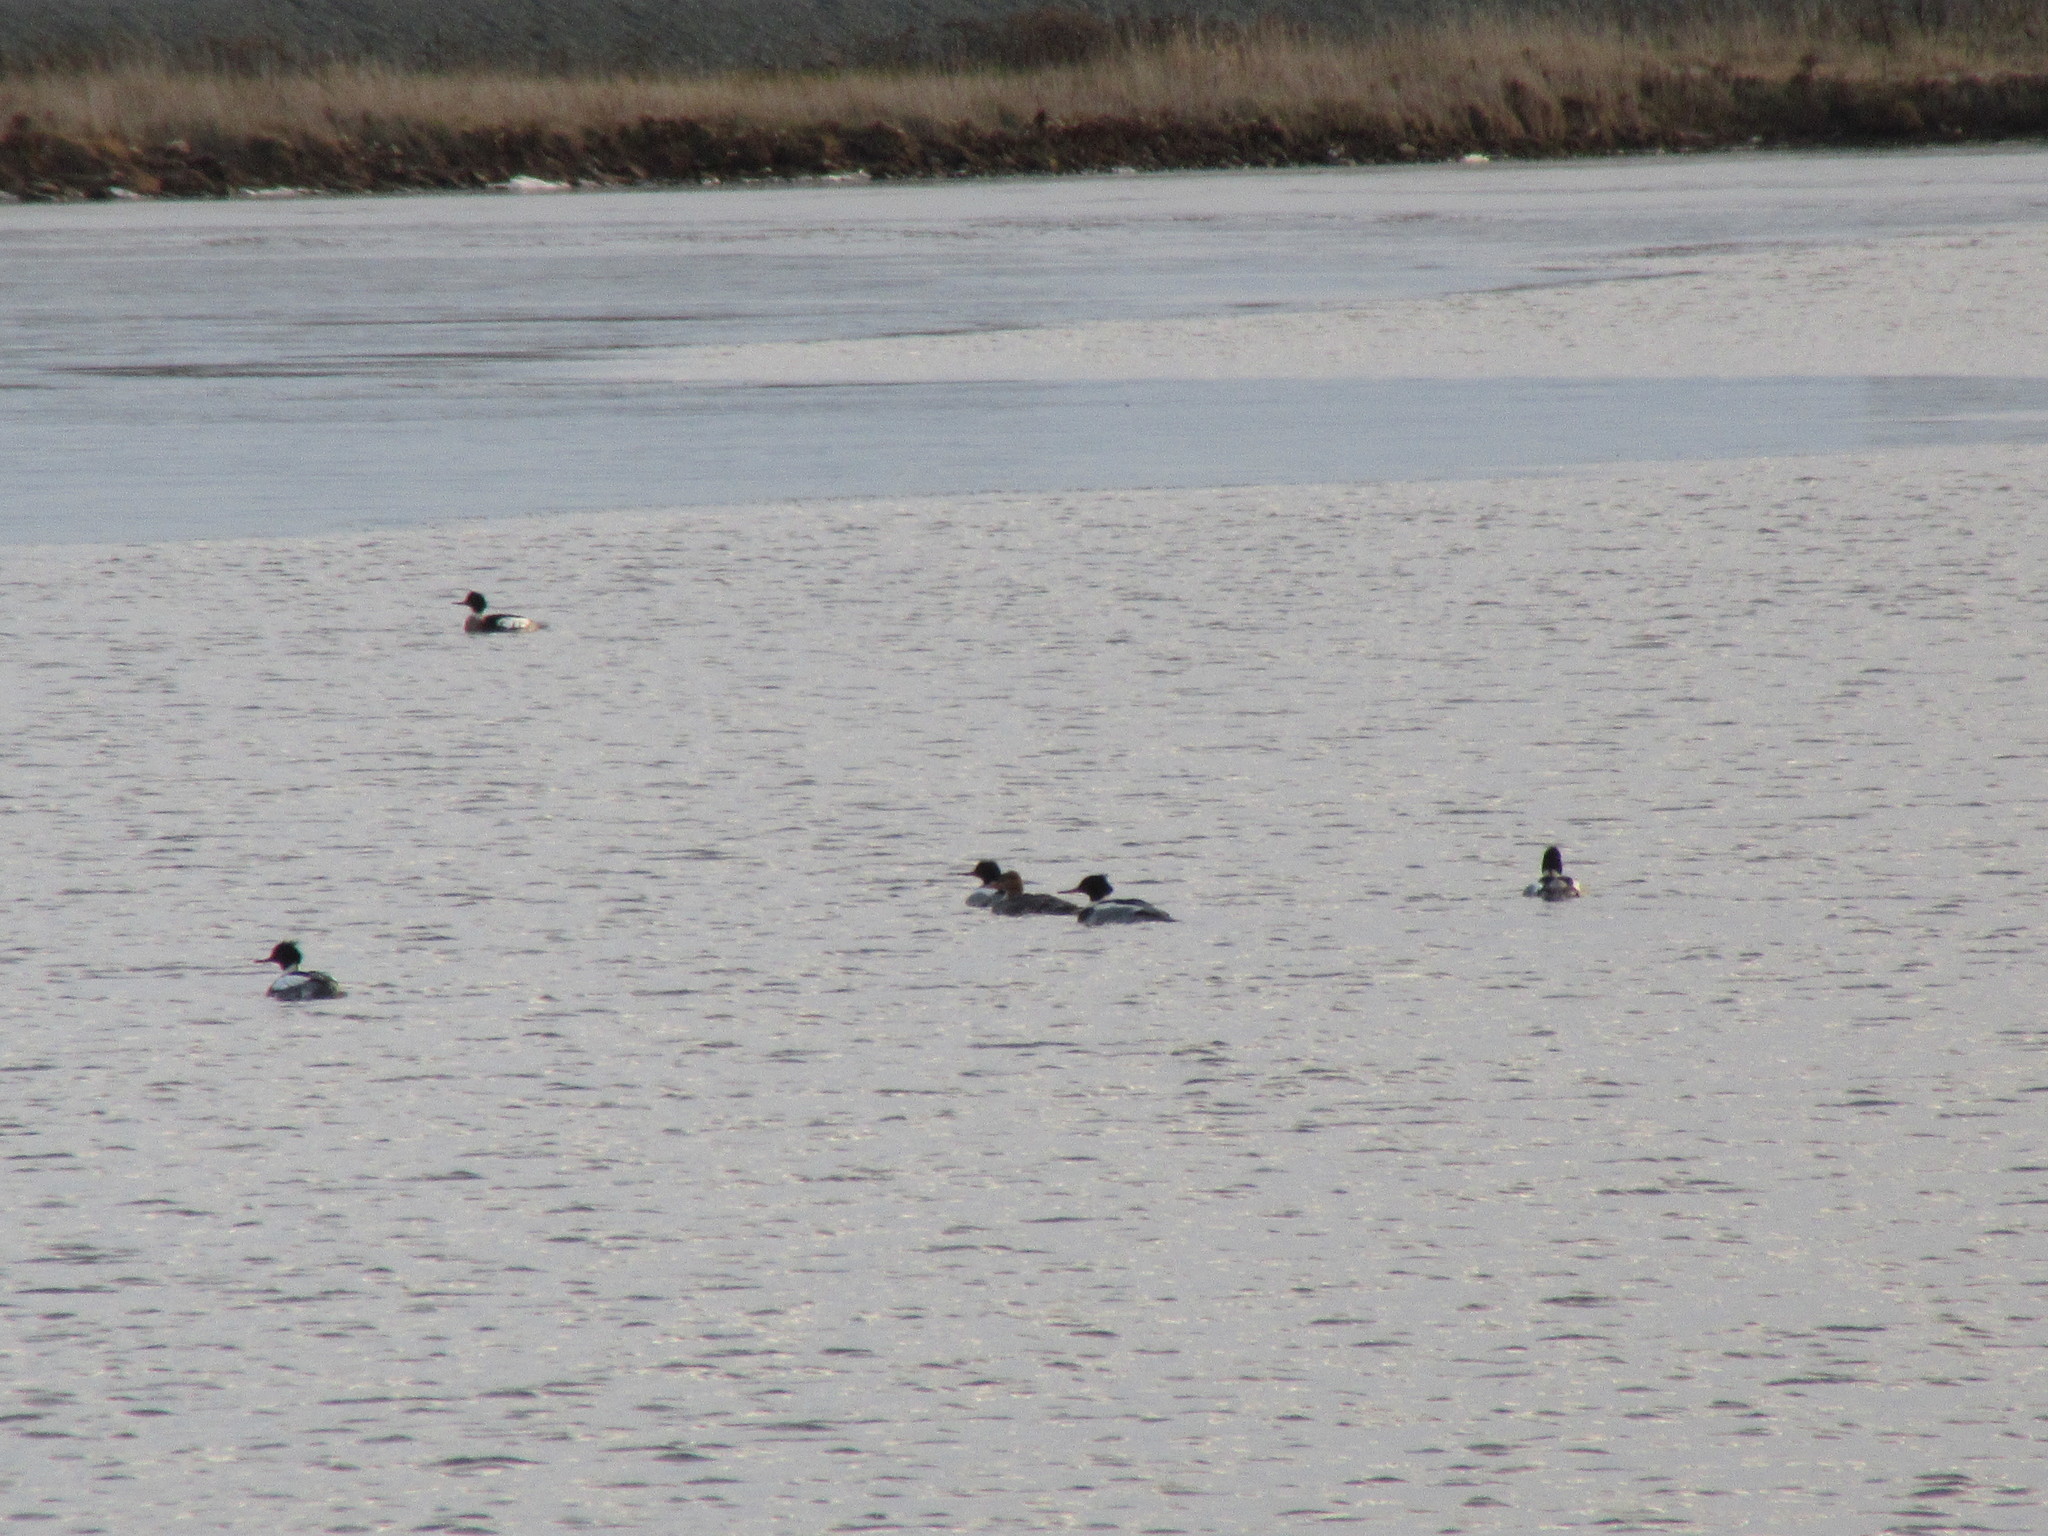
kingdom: Animalia
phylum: Chordata
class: Aves
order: Anseriformes
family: Anatidae
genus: Mergus
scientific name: Mergus serrator
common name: Red-breasted merganser
